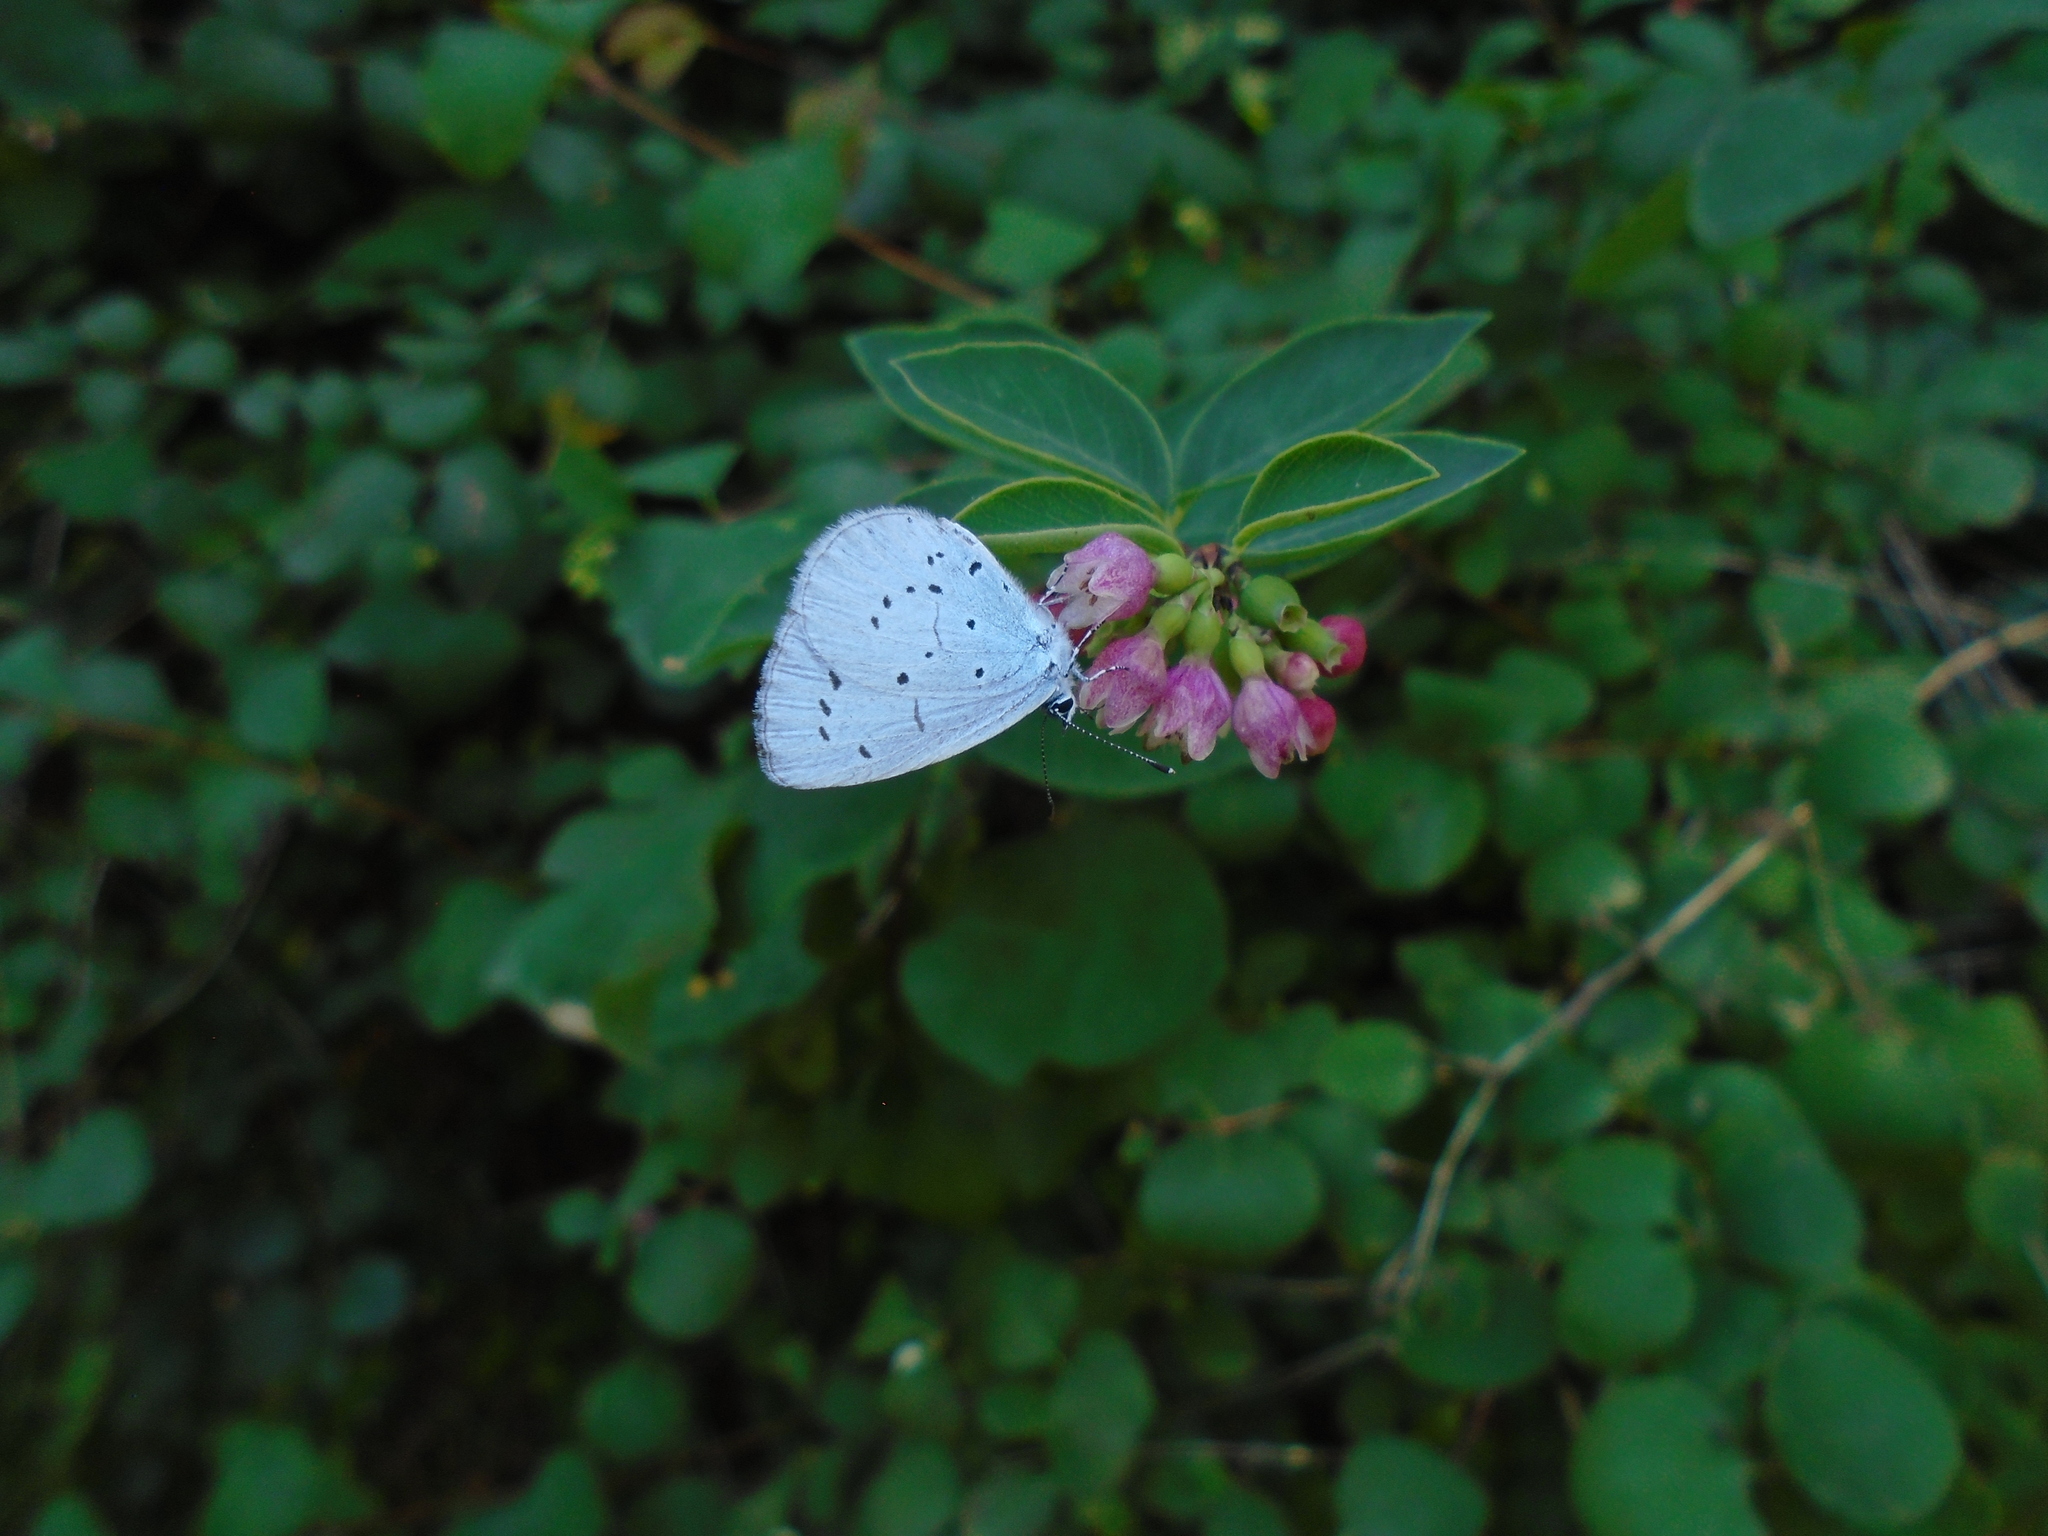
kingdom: Animalia
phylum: Arthropoda
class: Insecta
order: Lepidoptera
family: Lycaenidae
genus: Celastrina
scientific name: Celastrina argiolus
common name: Holly blue
